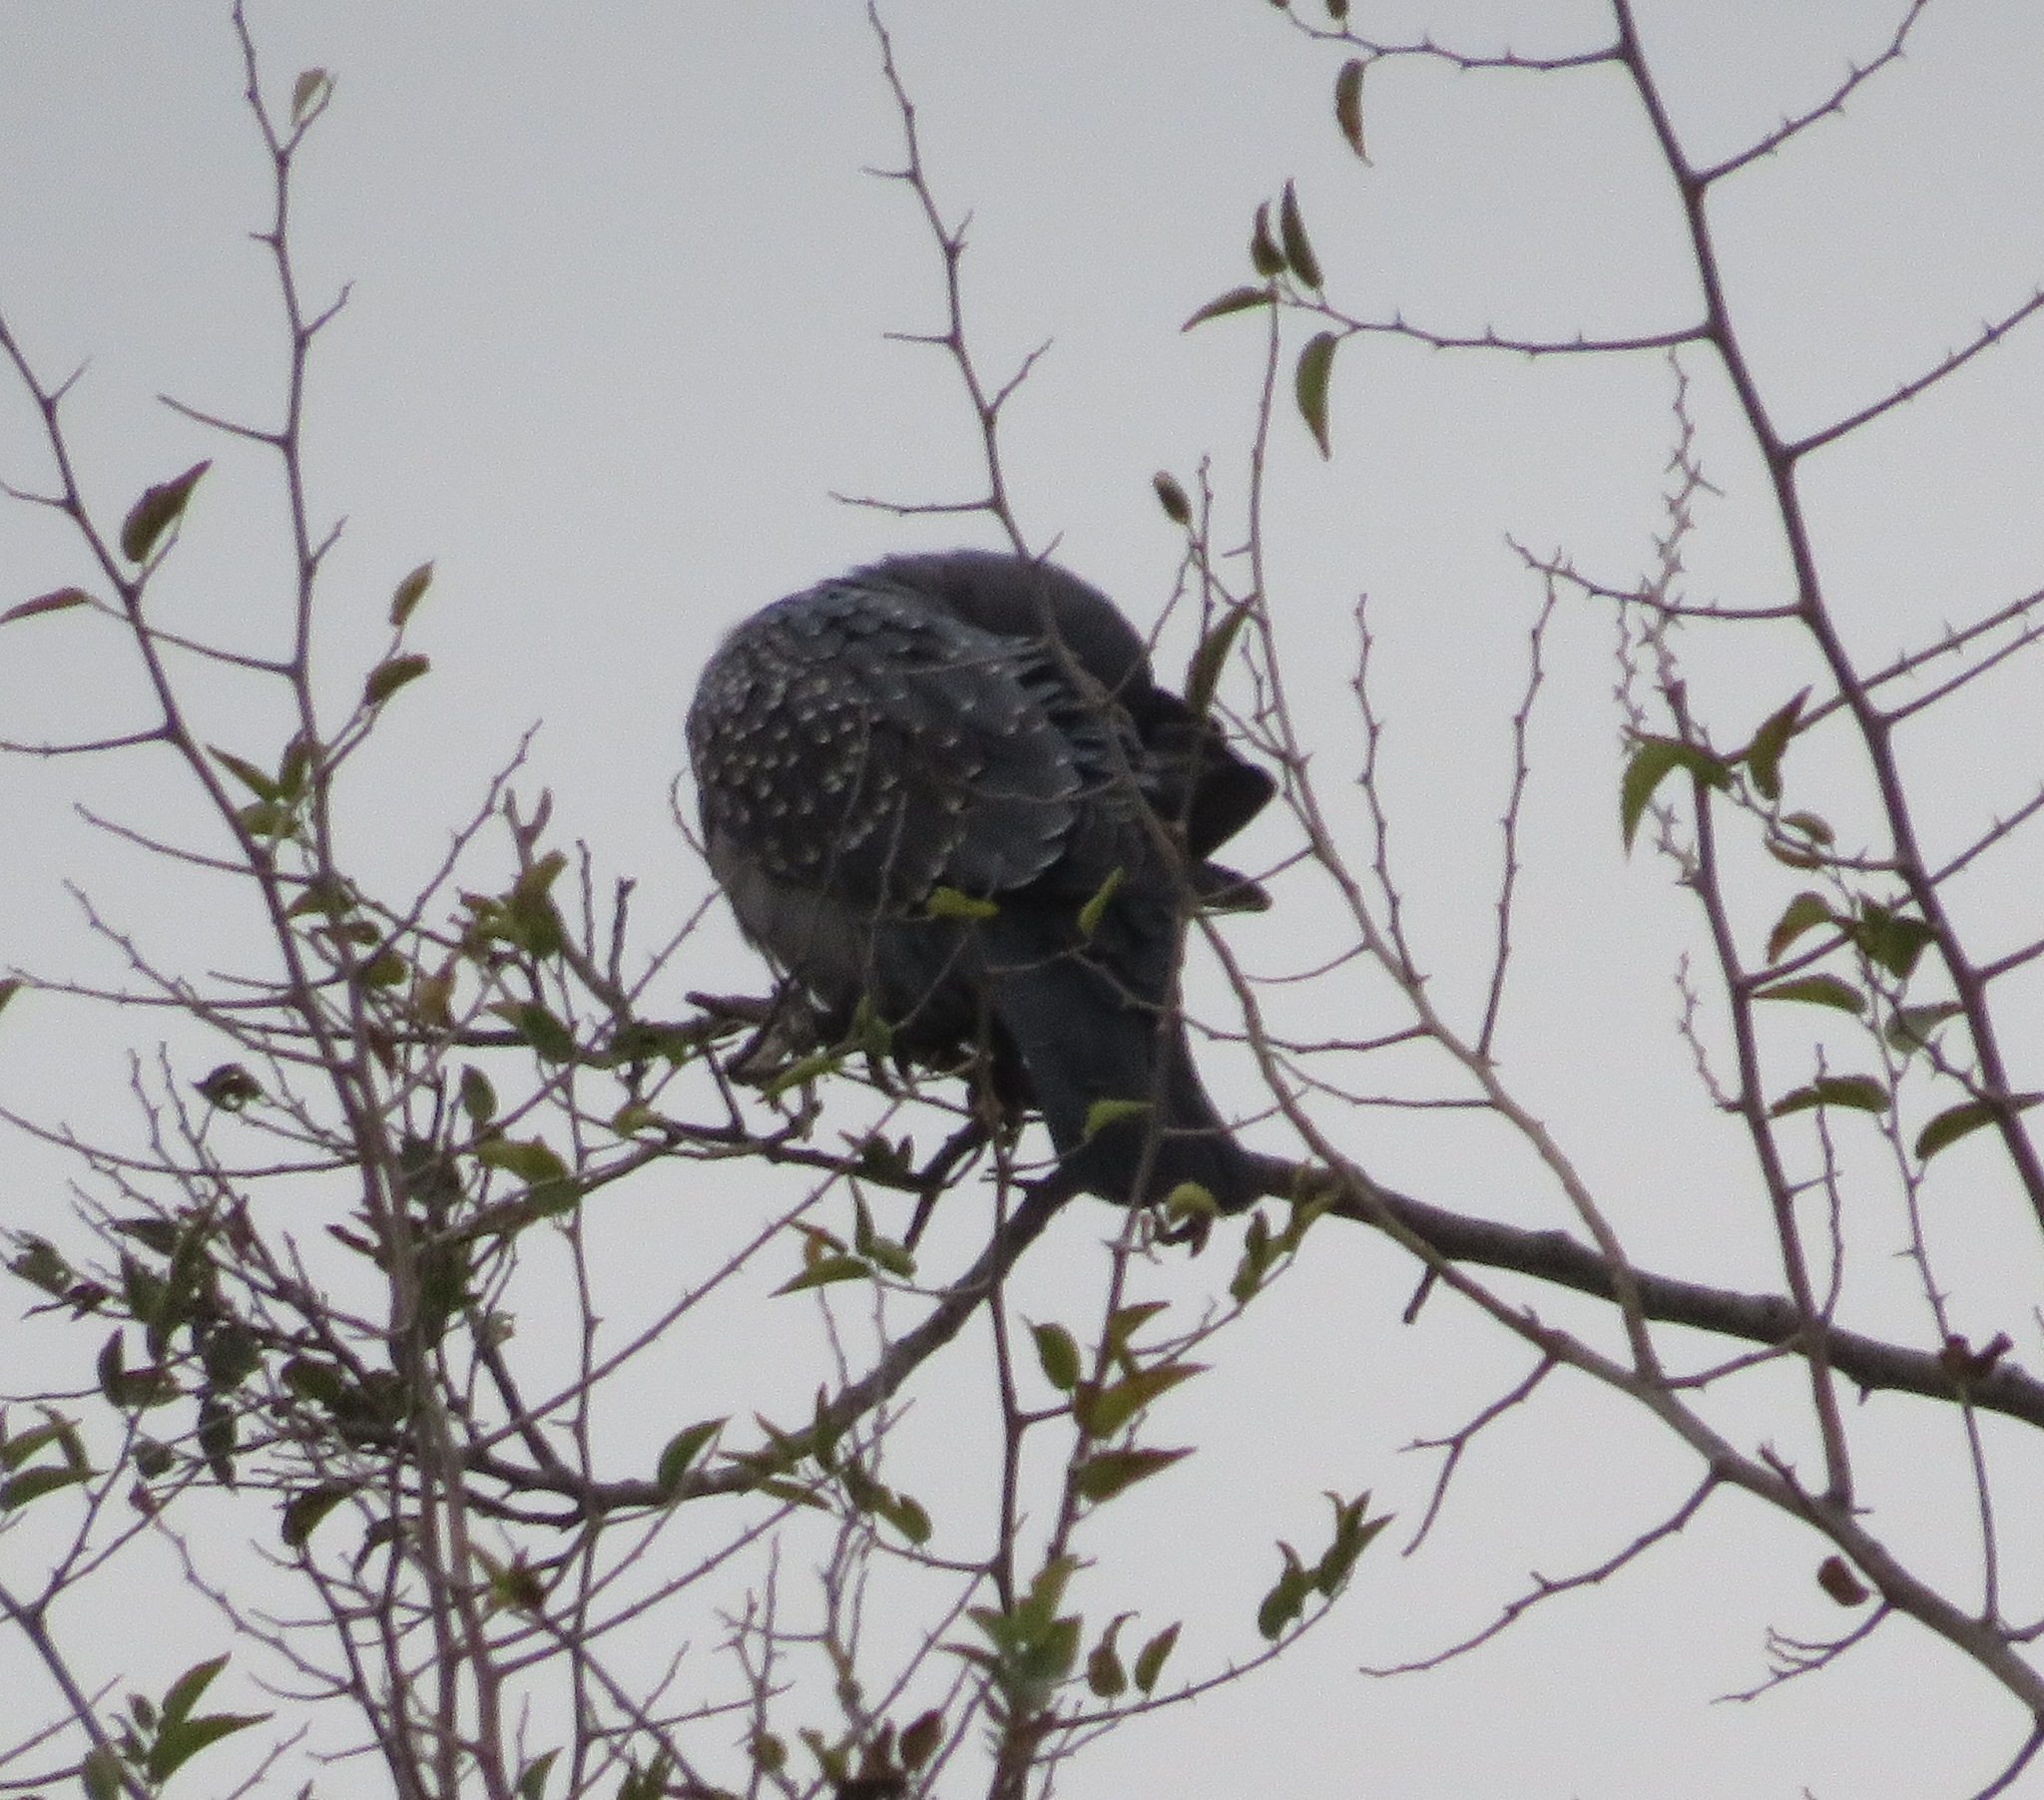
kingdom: Animalia
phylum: Chordata
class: Aves
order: Columbiformes
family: Columbidae
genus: Patagioenas
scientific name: Patagioenas maculosa
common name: Spot-winged pigeon
